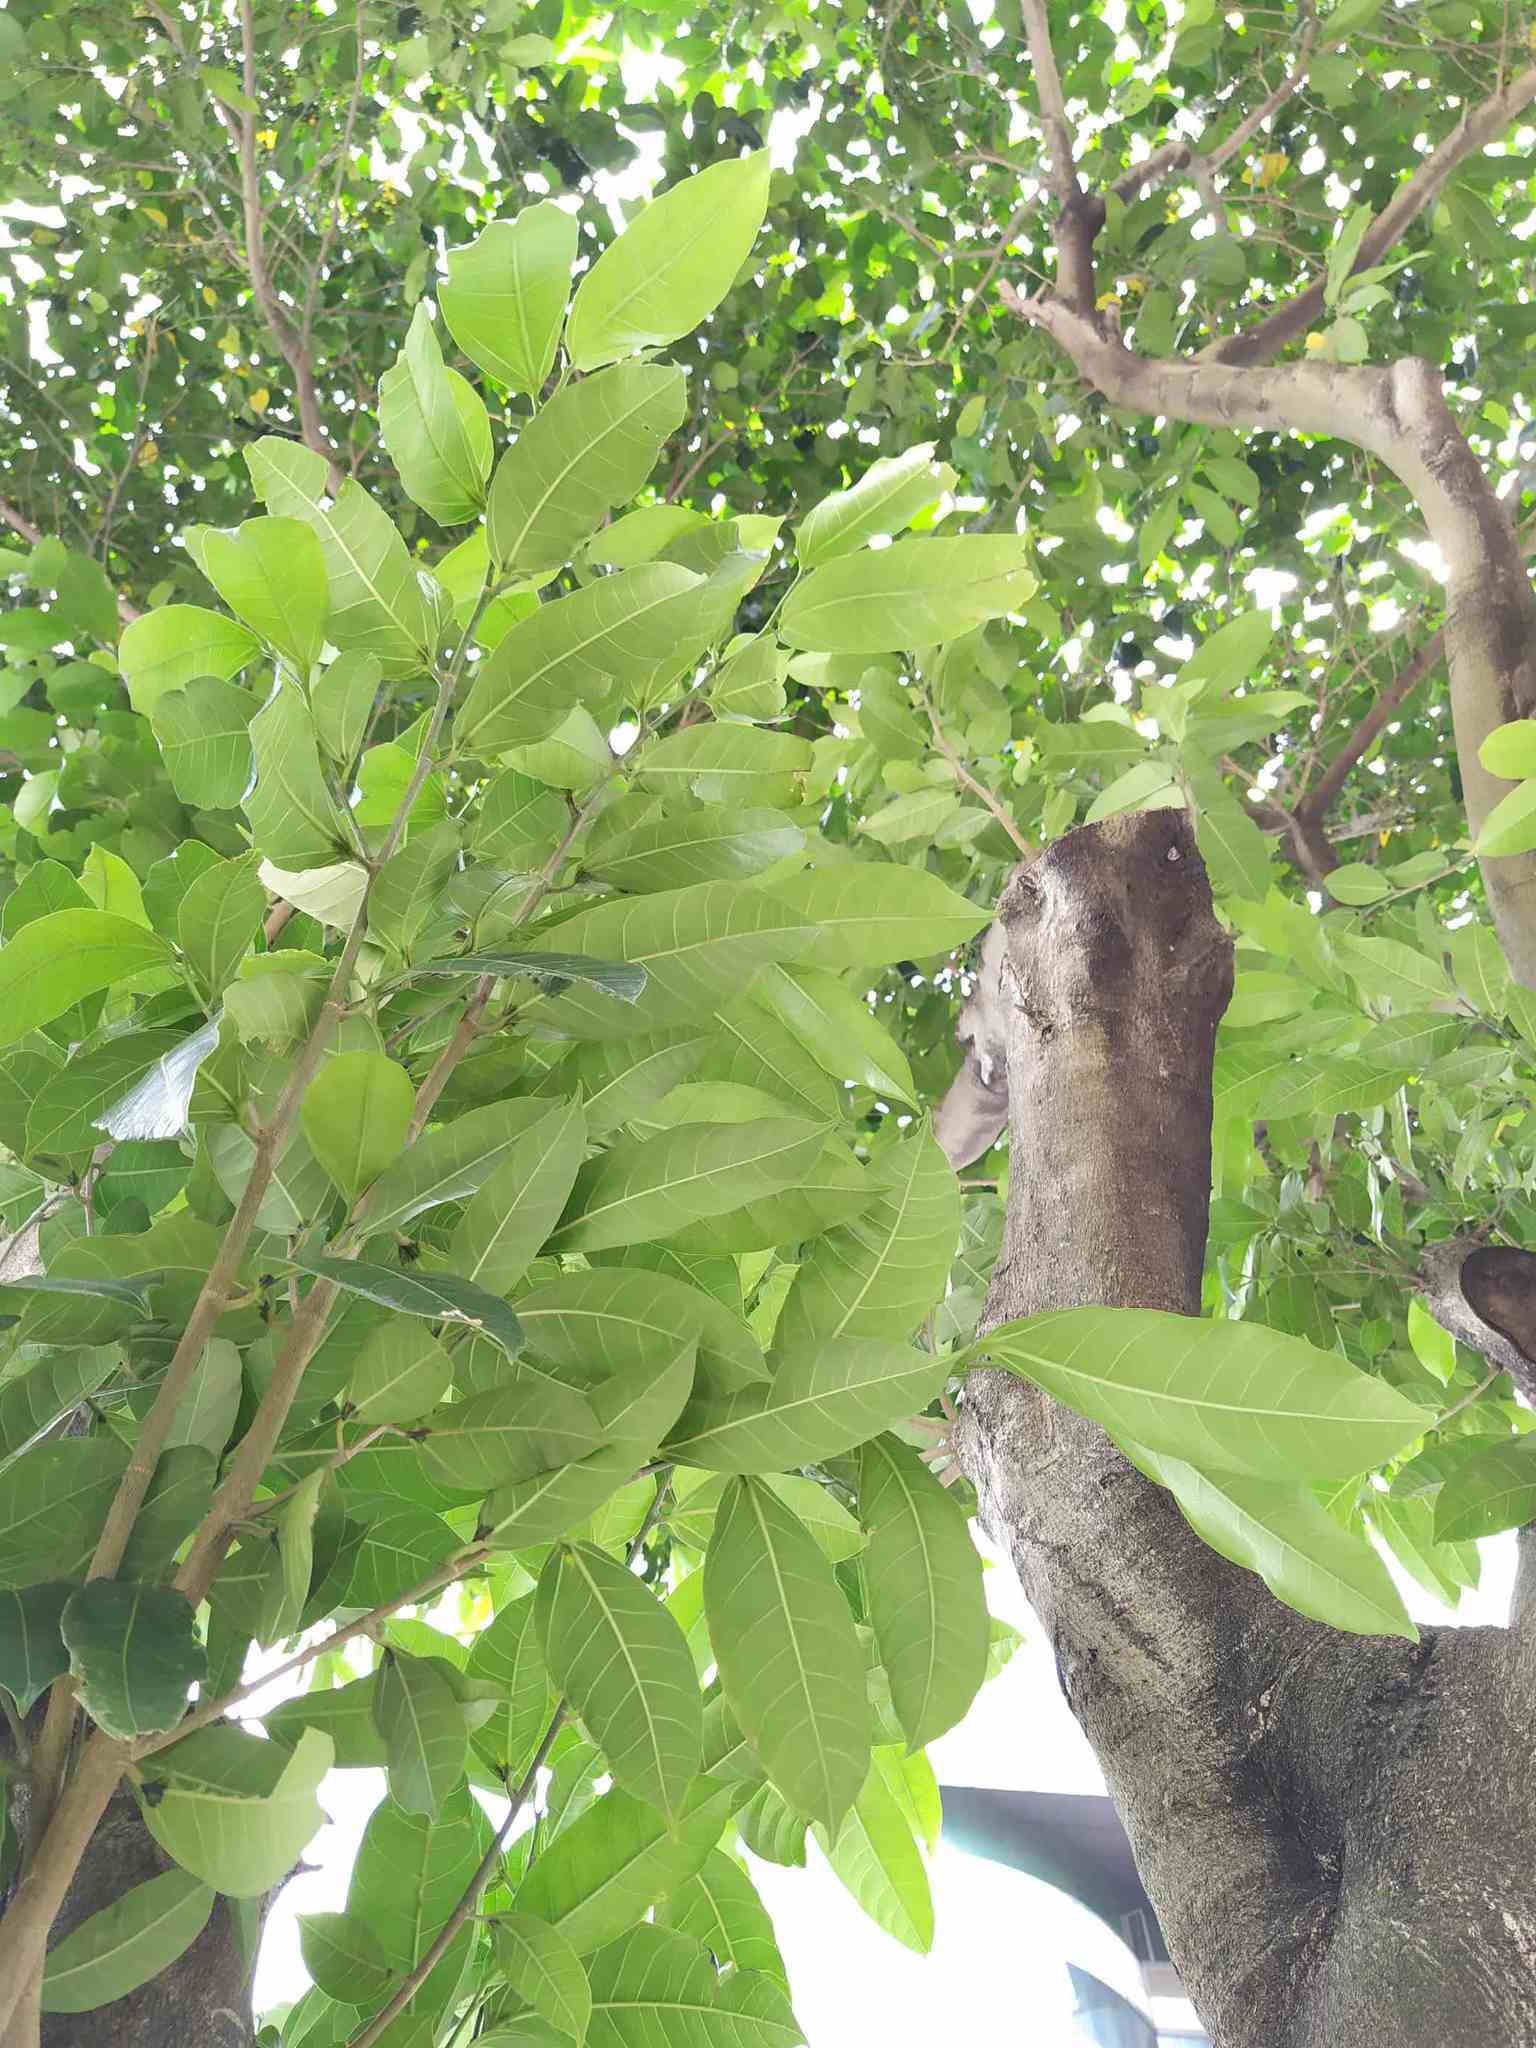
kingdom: Plantae
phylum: Tracheophyta
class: Magnoliopsida
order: Rosales
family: Moraceae
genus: Ficus
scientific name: Ficus virgata
